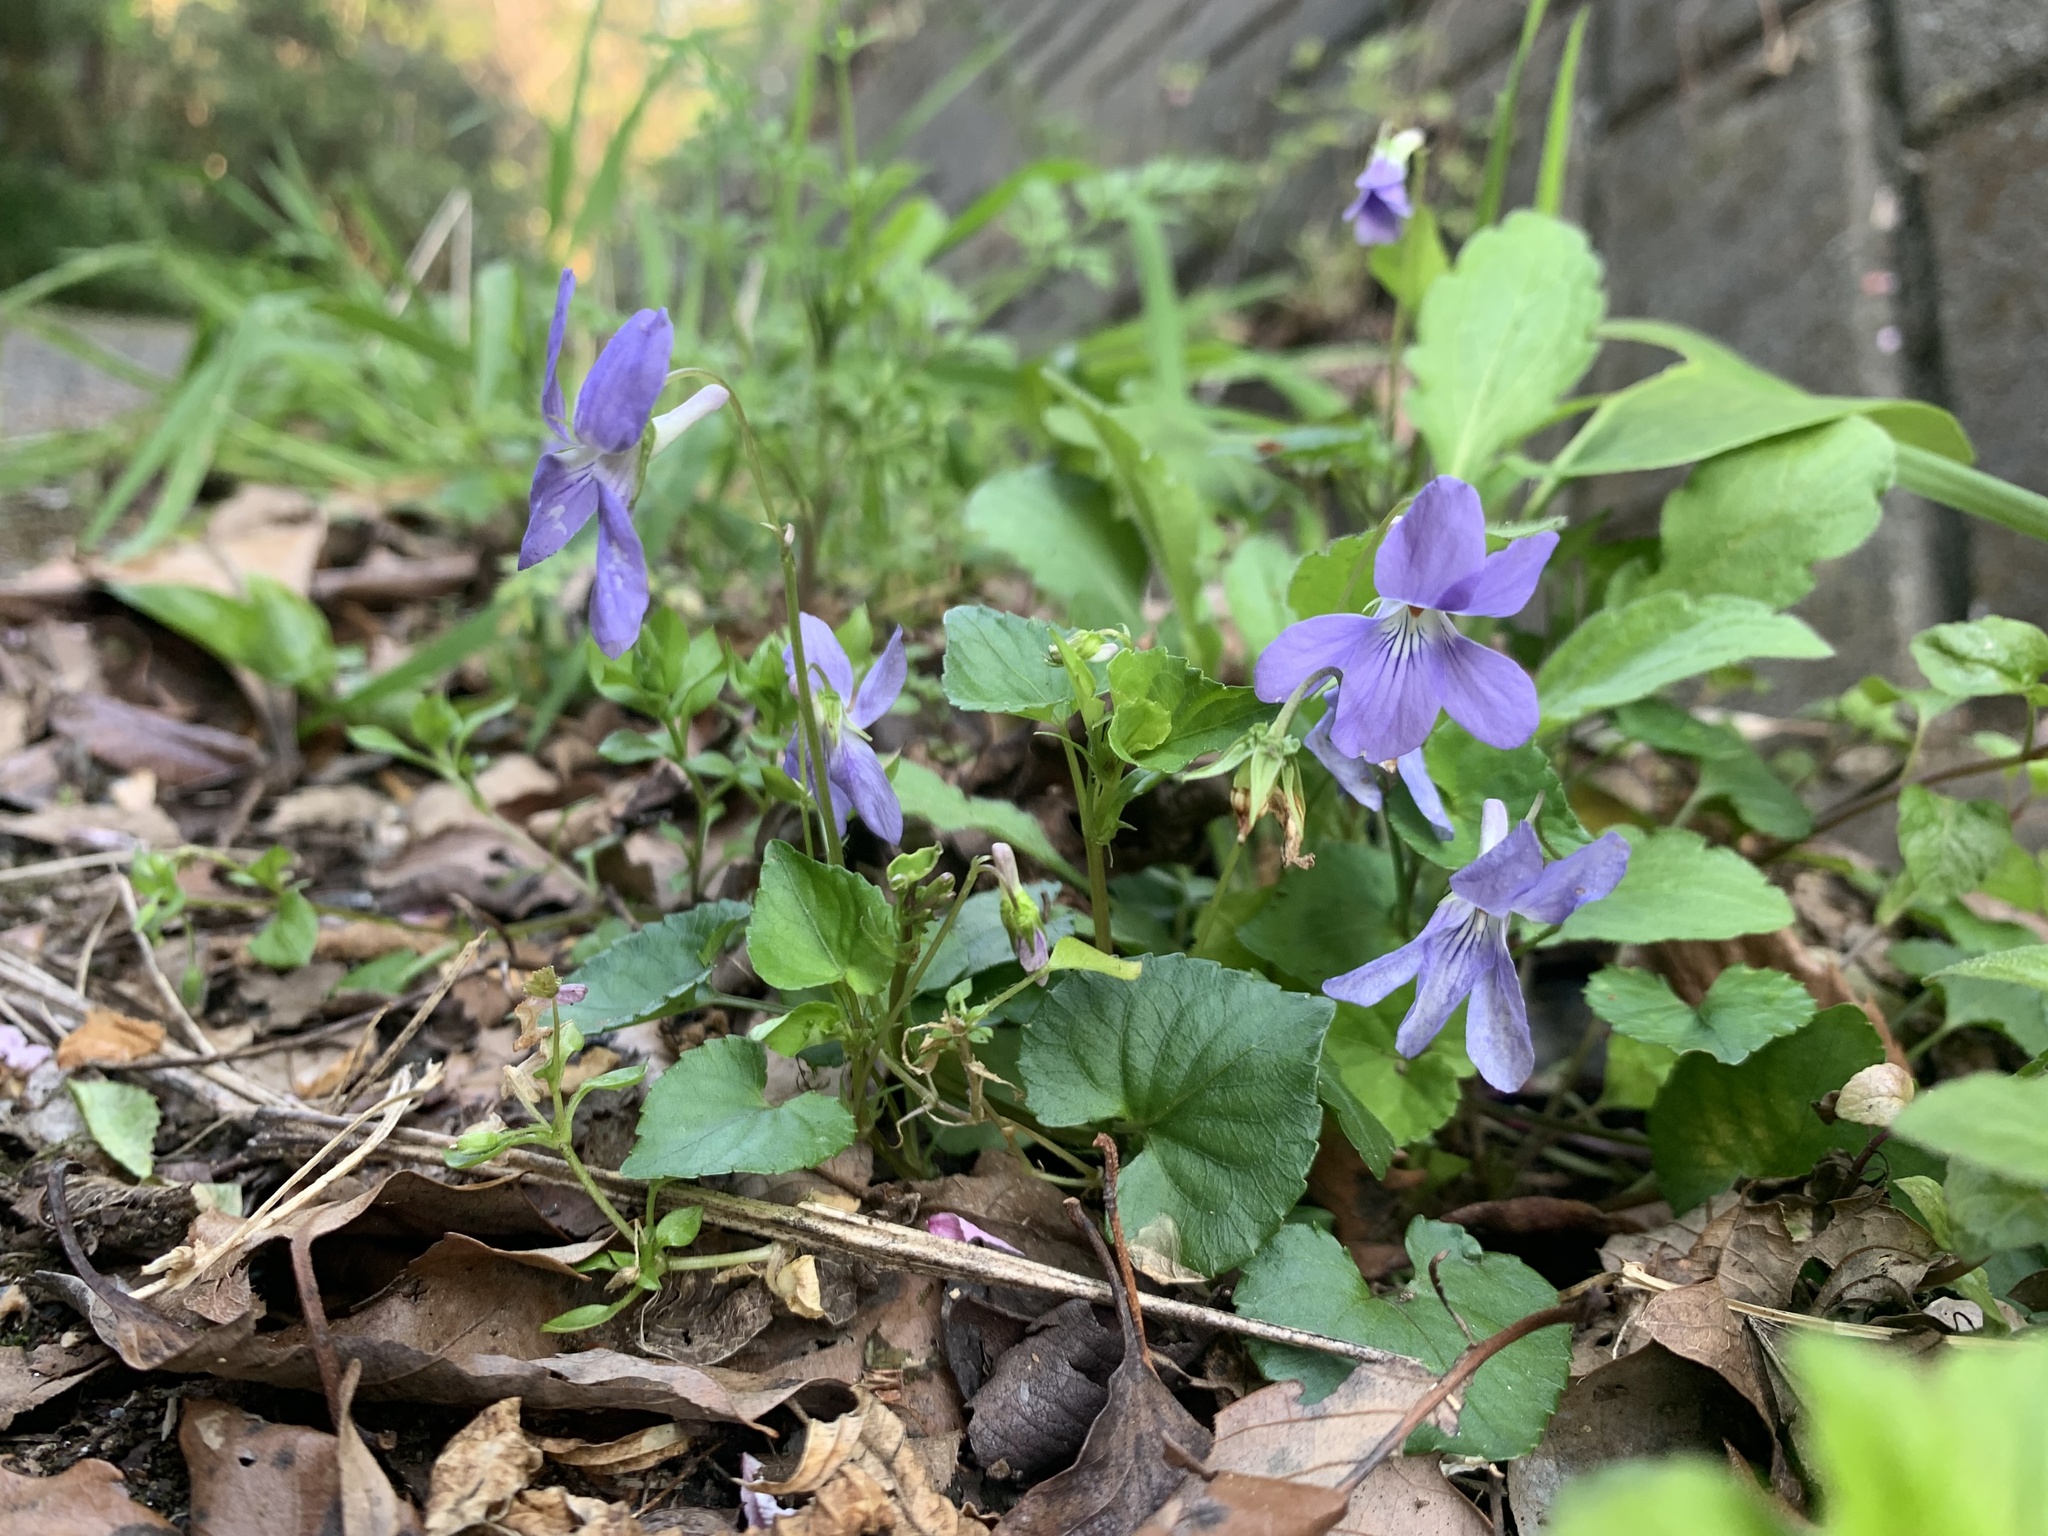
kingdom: Plantae
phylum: Tracheophyta
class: Magnoliopsida
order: Malpighiales
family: Violaceae
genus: Viola
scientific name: Viola grypoceras
